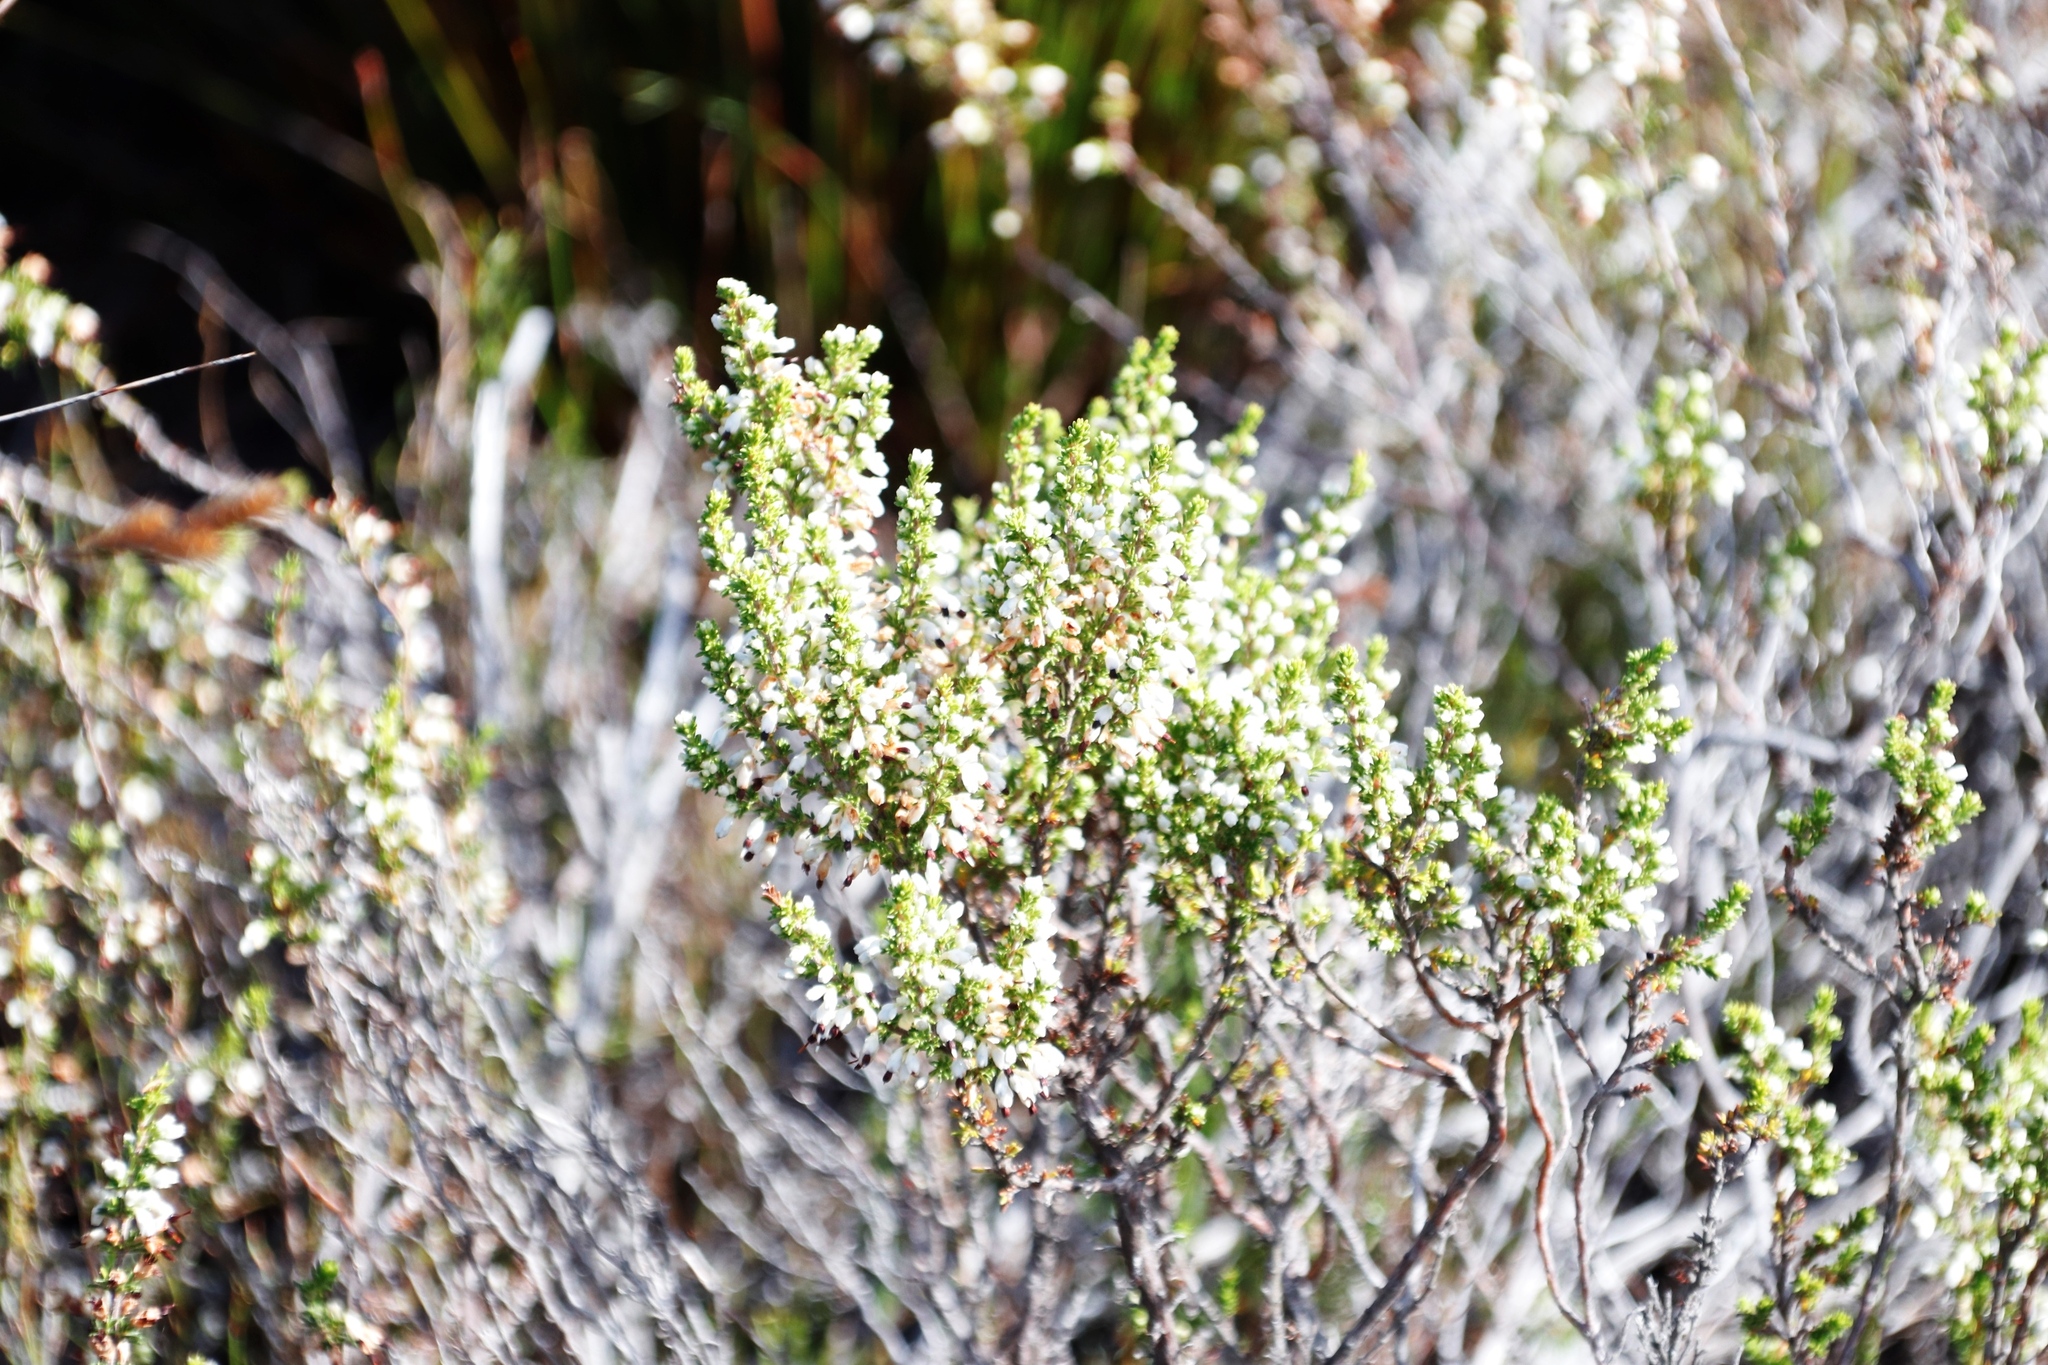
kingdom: Plantae
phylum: Tracheophyta
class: Magnoliopsida
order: Ericales
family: Ericaceae
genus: Erica
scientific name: Erica imbricata
